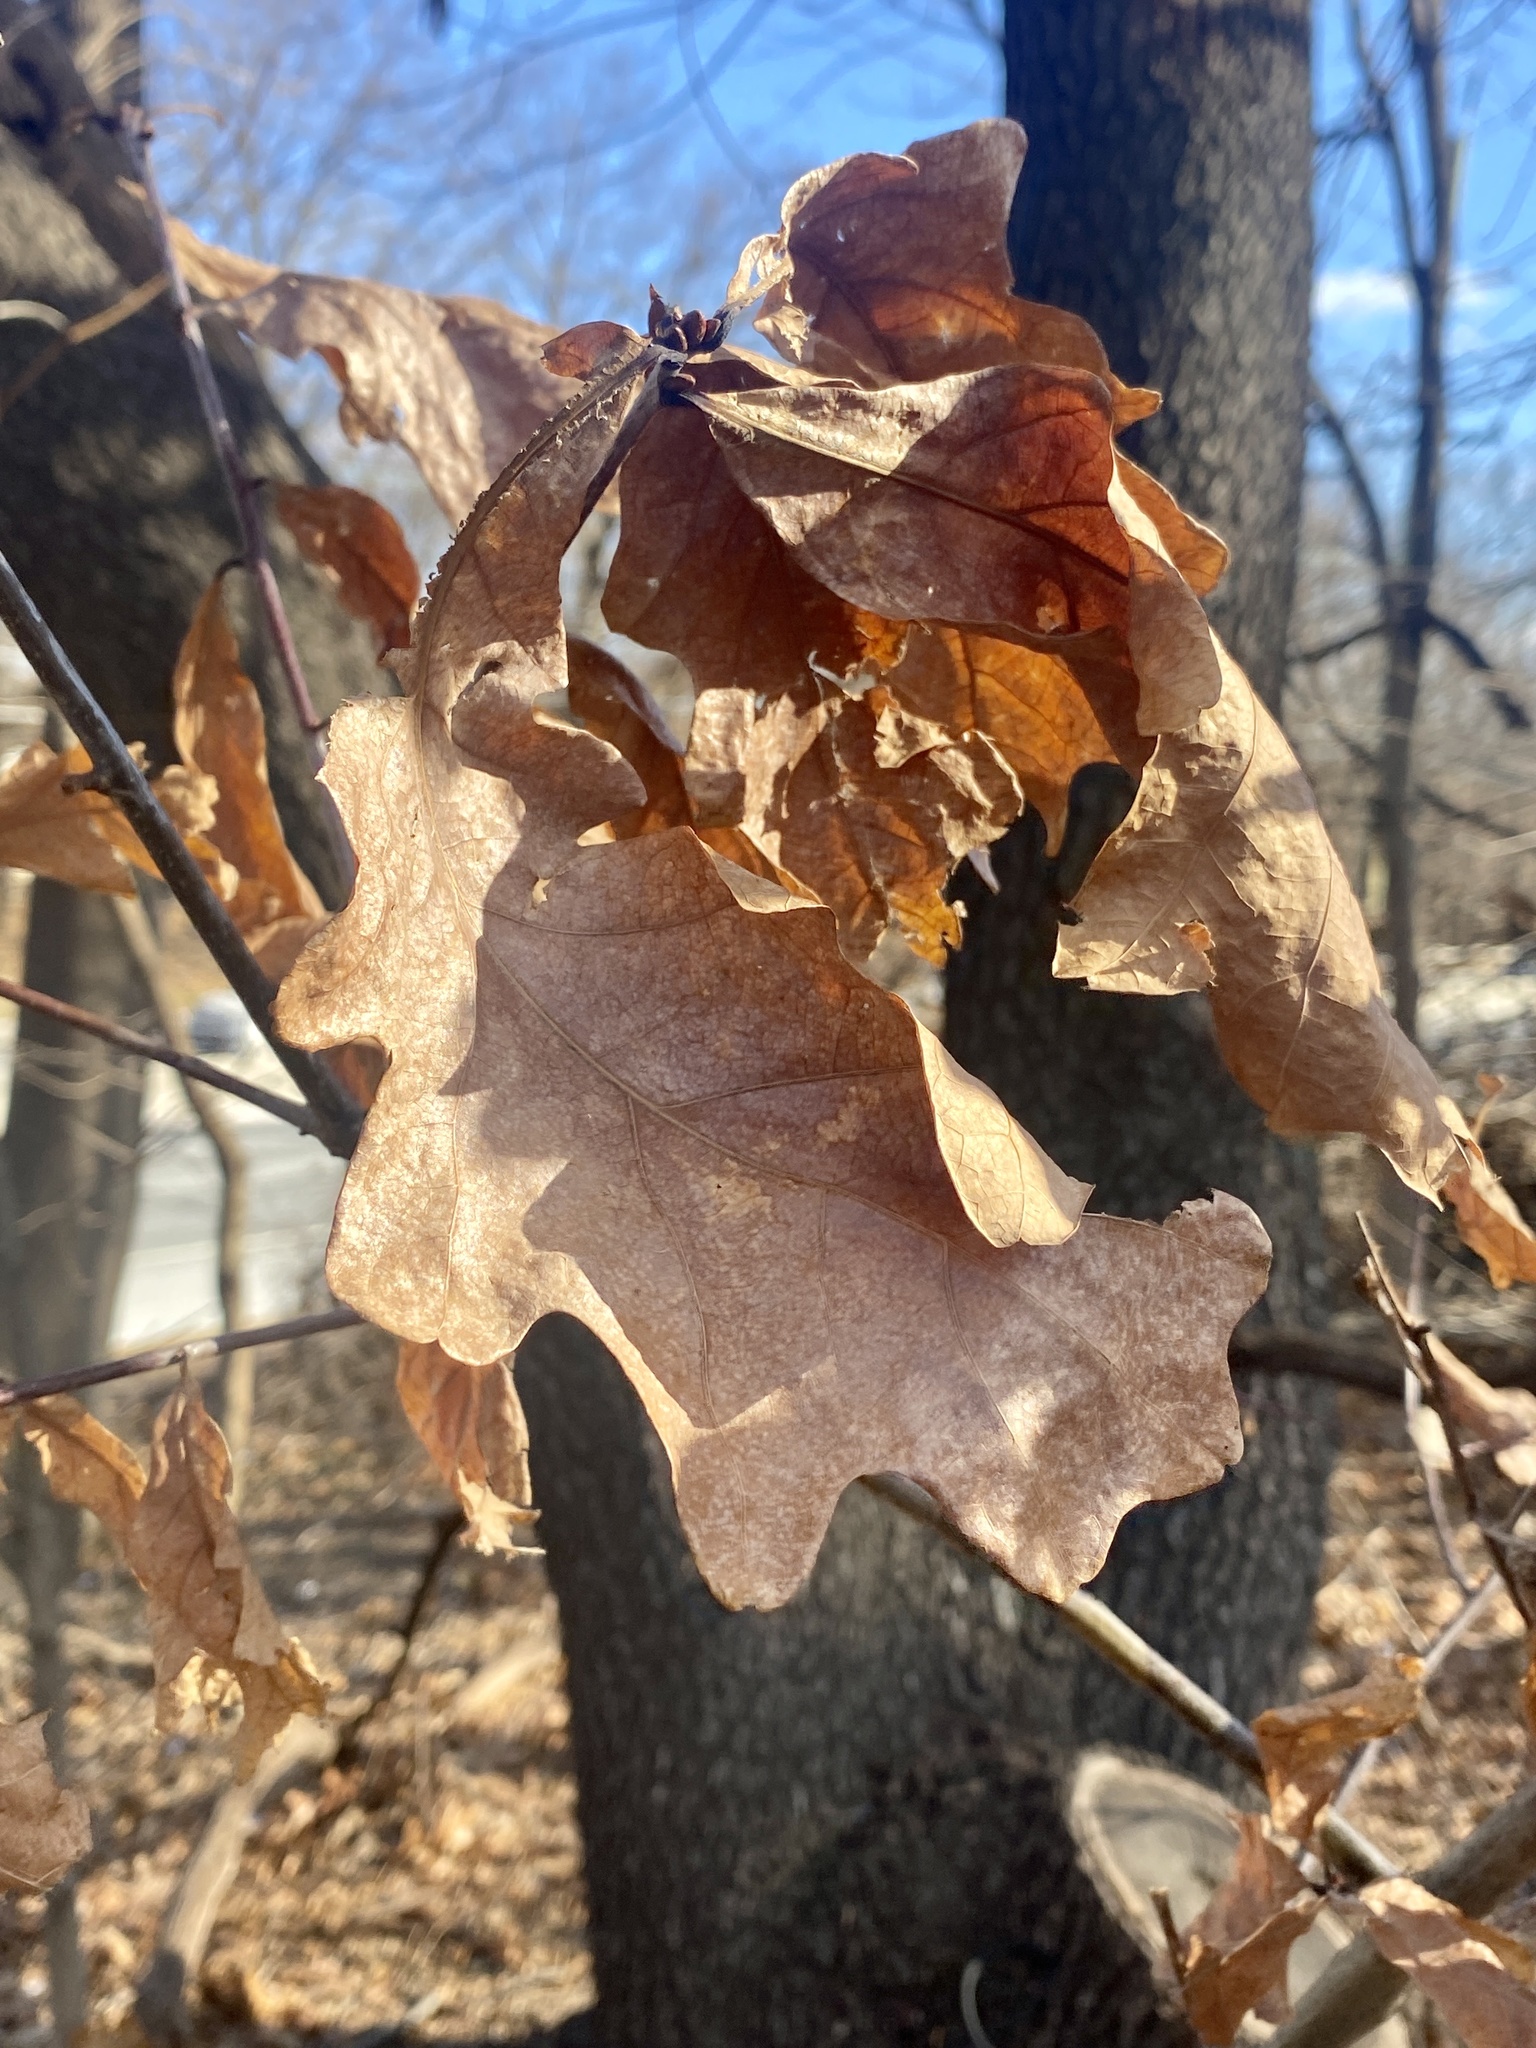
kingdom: Plantae
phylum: Tracheophyta
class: Magnoliopsida
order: Fagales
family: Fagaceae
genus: Quercus
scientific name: Quercus alba
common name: White oak
